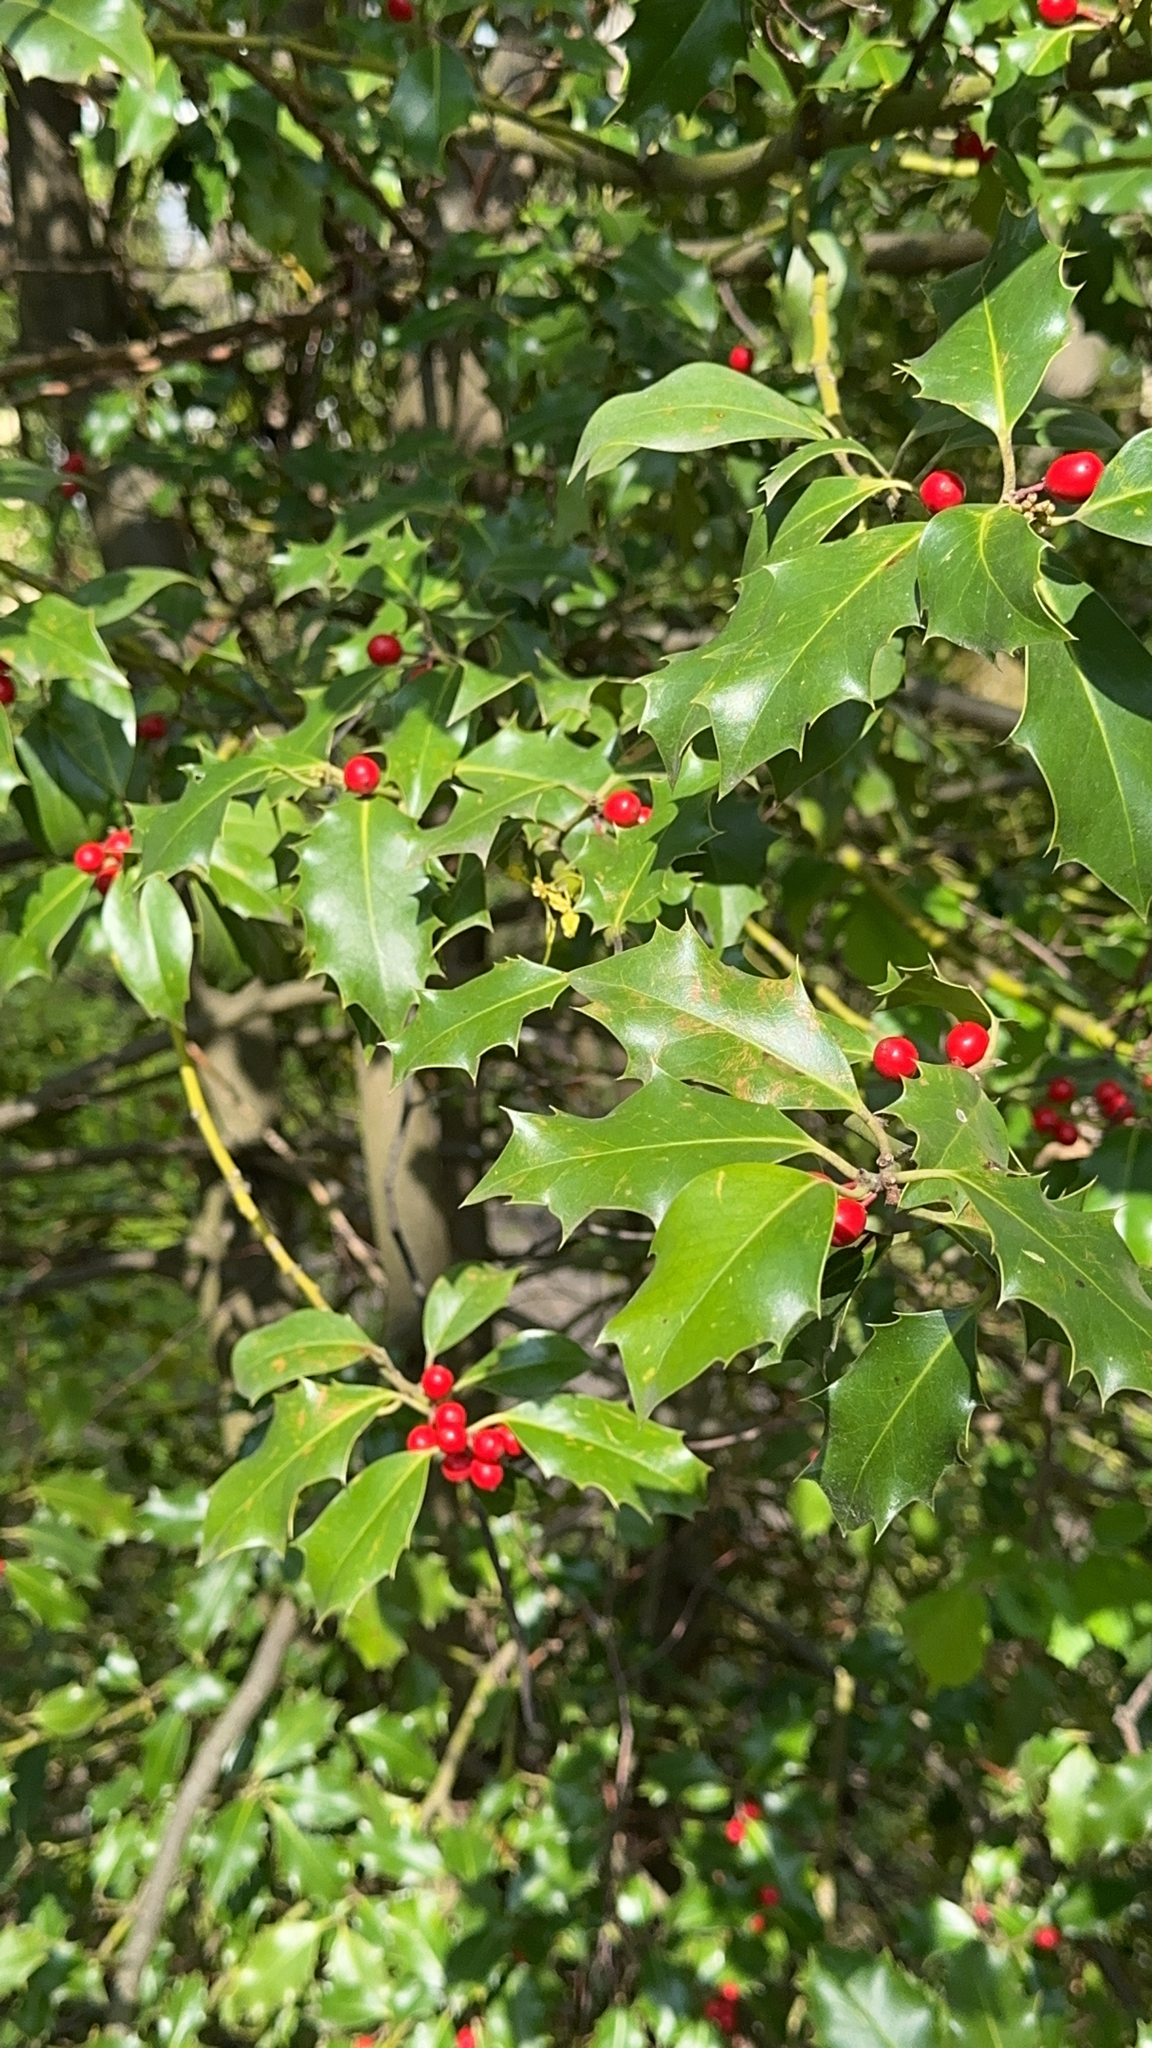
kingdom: Plantae
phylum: Tracheophyta
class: Magnoliopsida
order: Aquifoliales
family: Aquifoliaceae
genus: Ilex
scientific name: Ilex aquifolium
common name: English holly
